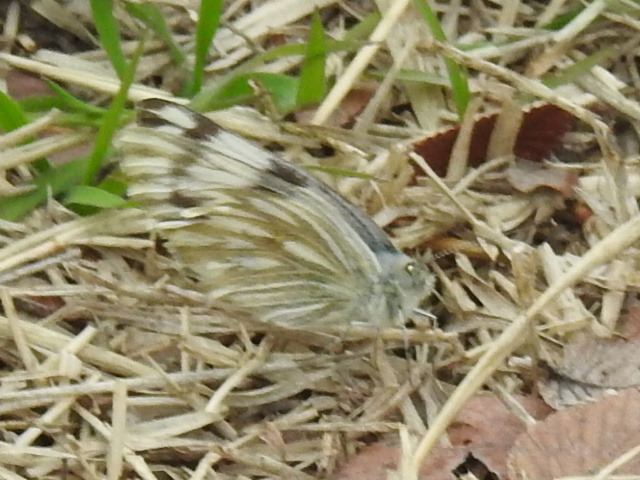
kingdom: Animalia
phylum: Arthropoda
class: Insecta
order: Lepidoptera
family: Pieridae
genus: Pontia
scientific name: Pontia protodice
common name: Checkered white
